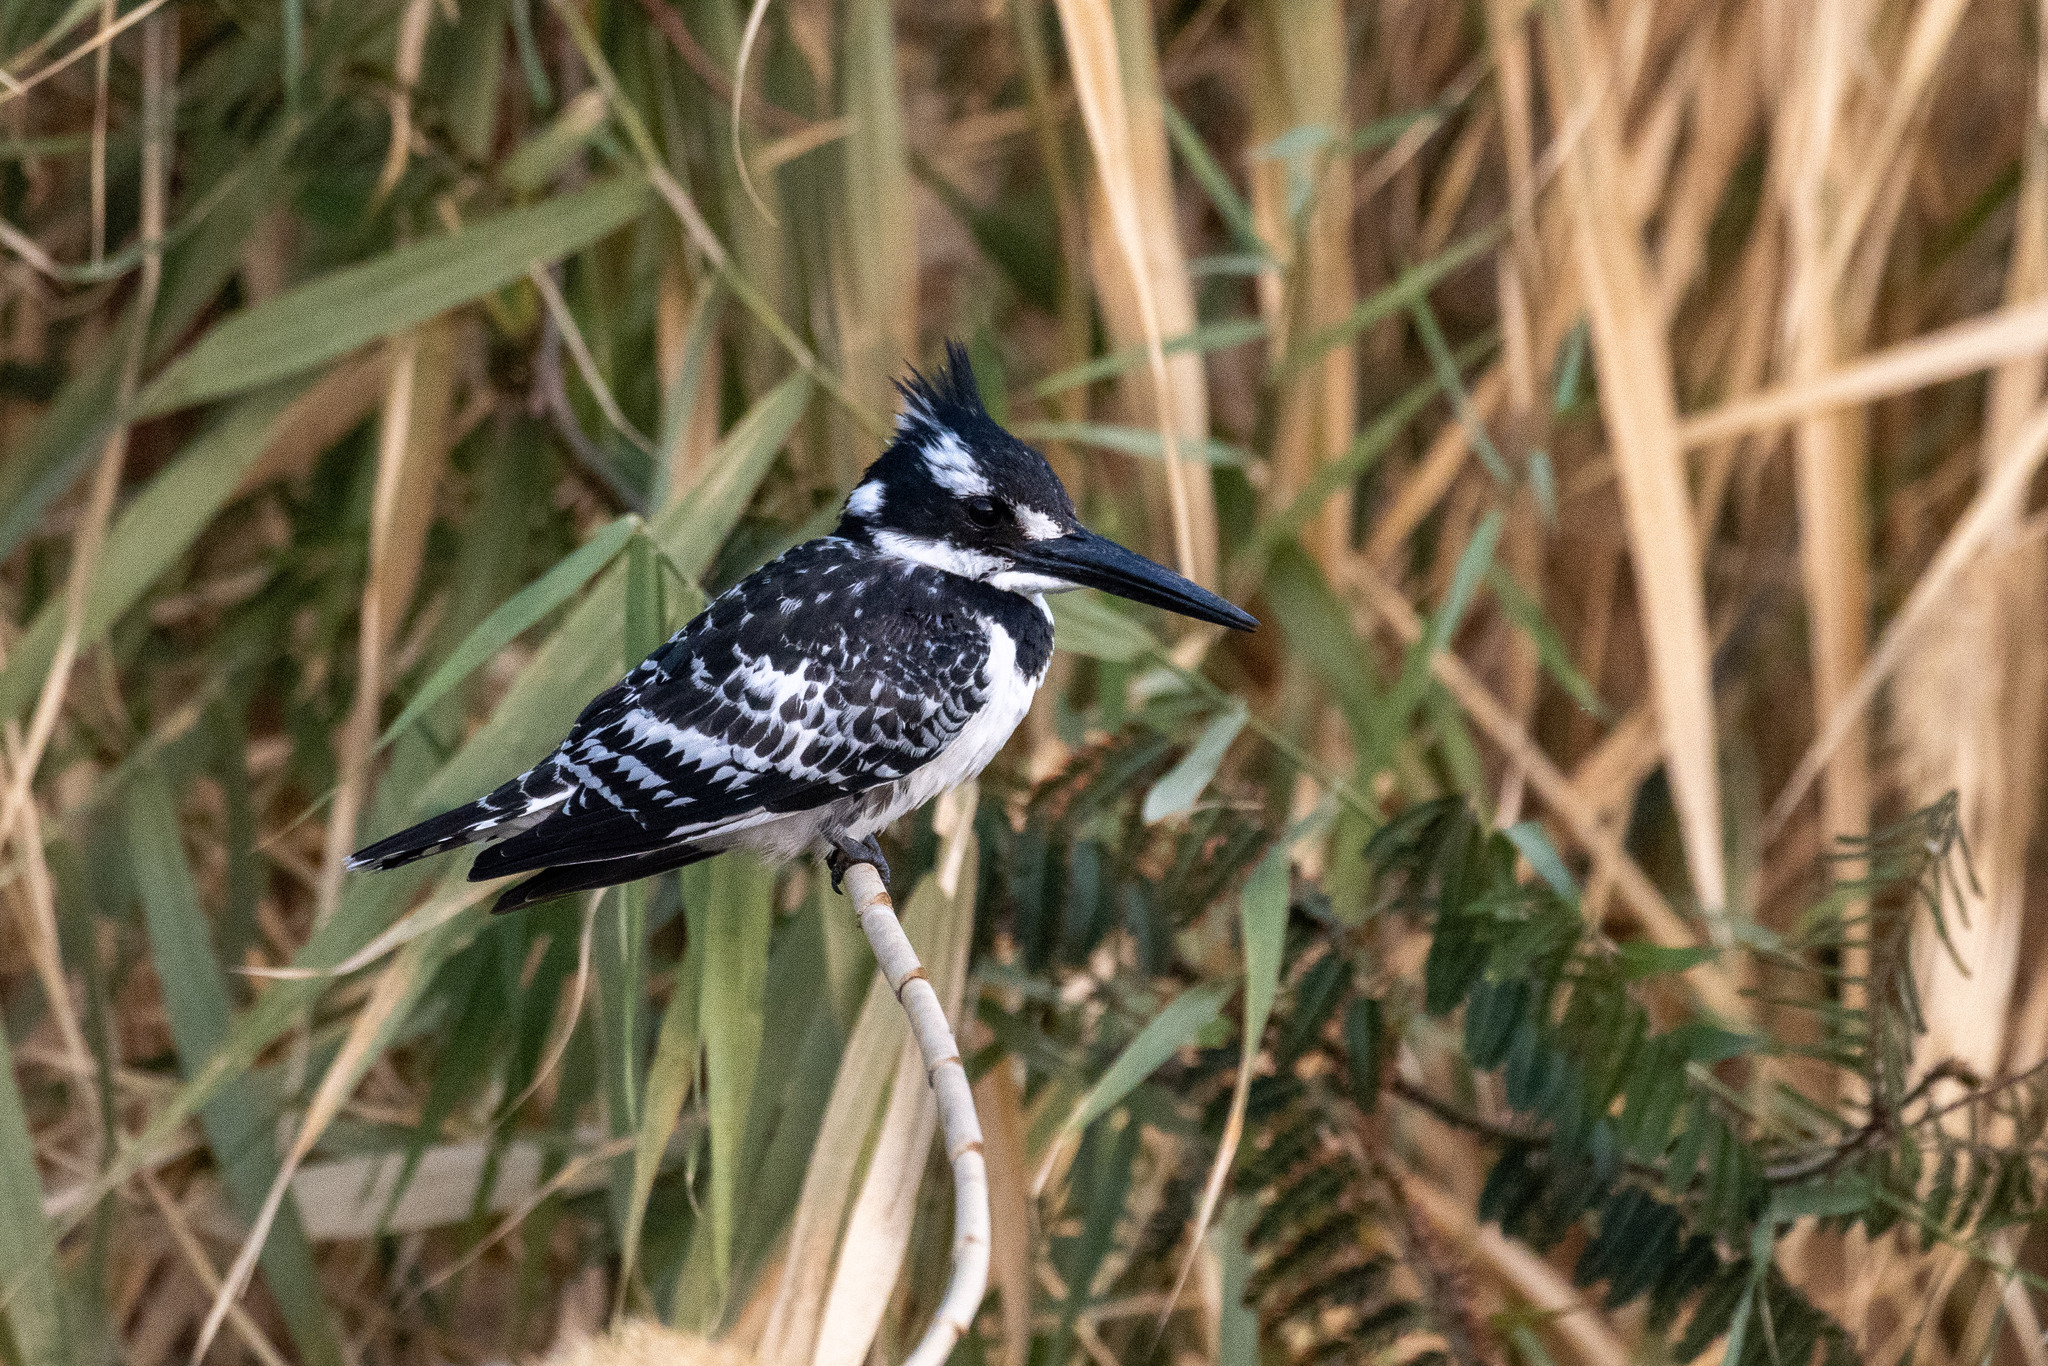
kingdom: Animalia
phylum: Chordata
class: Aves
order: Coraciiformes
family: Alcedinidae
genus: Ceryle
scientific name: Ceryle rudis
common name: Pied kingfisher
